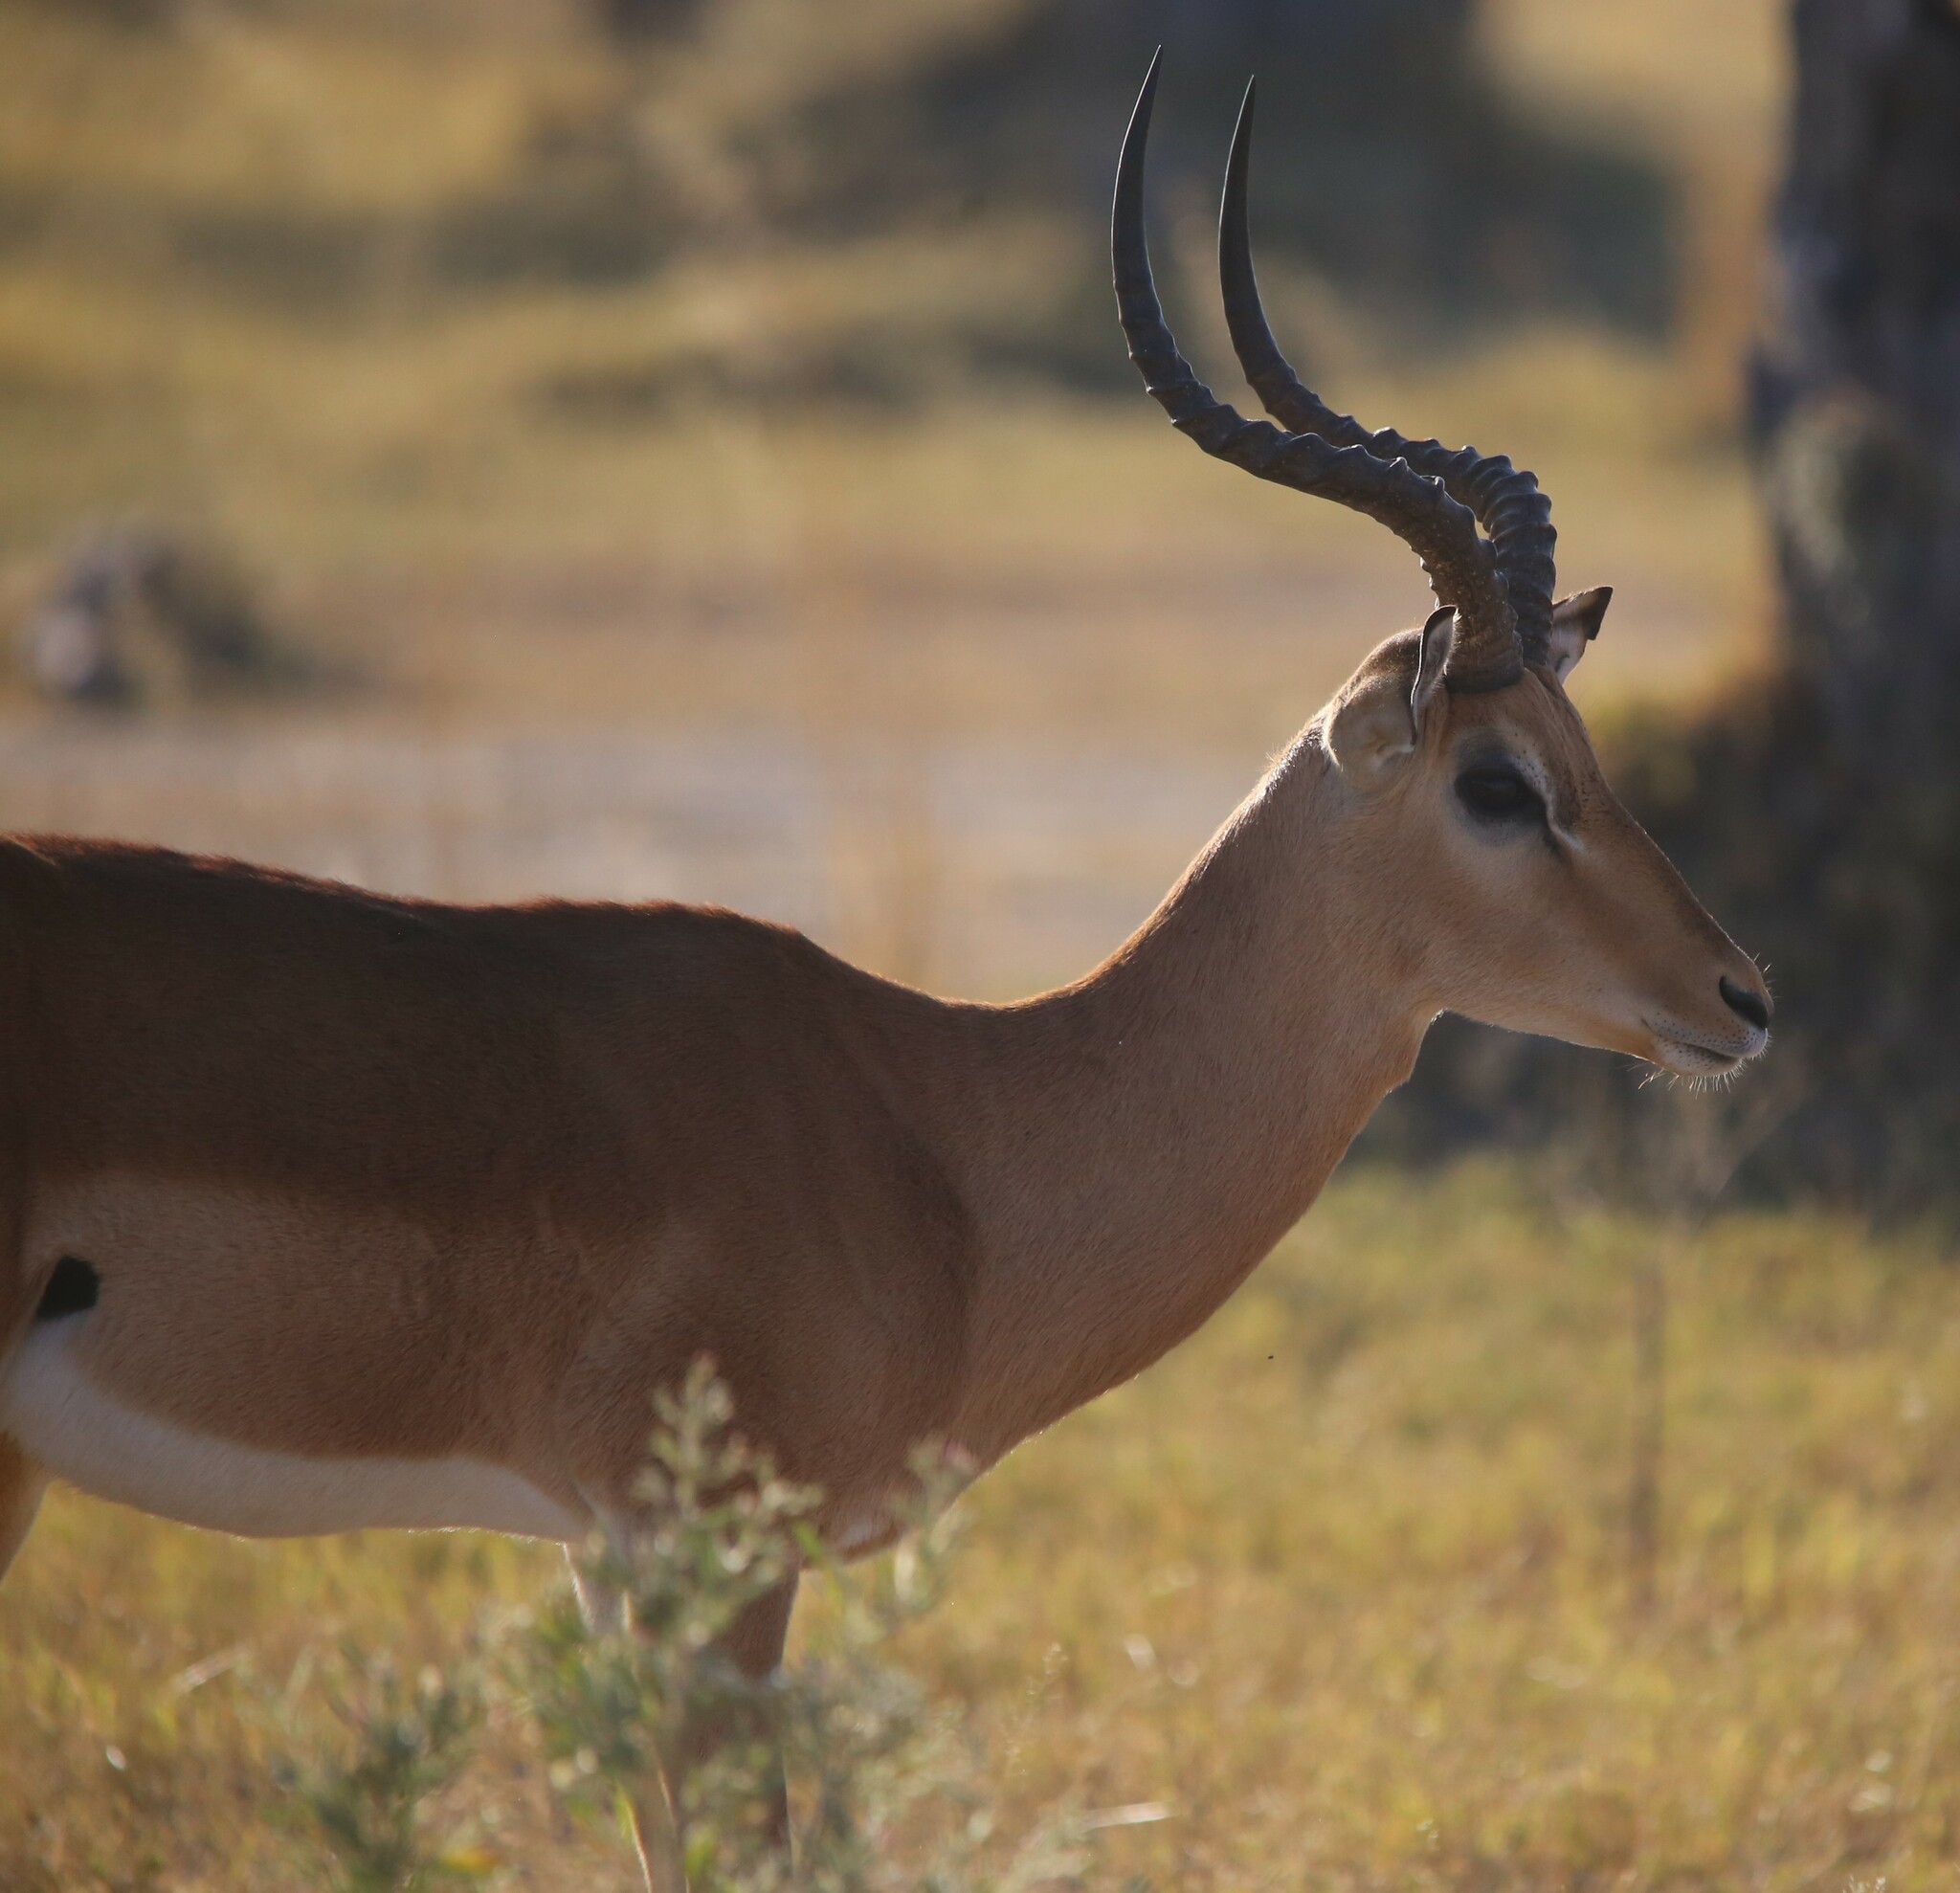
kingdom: Animalia
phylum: Chordata
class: Mammalia
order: Artiodactyla
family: Bovidae
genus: Aepyceros
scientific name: Aepyceros melampus
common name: Impala
